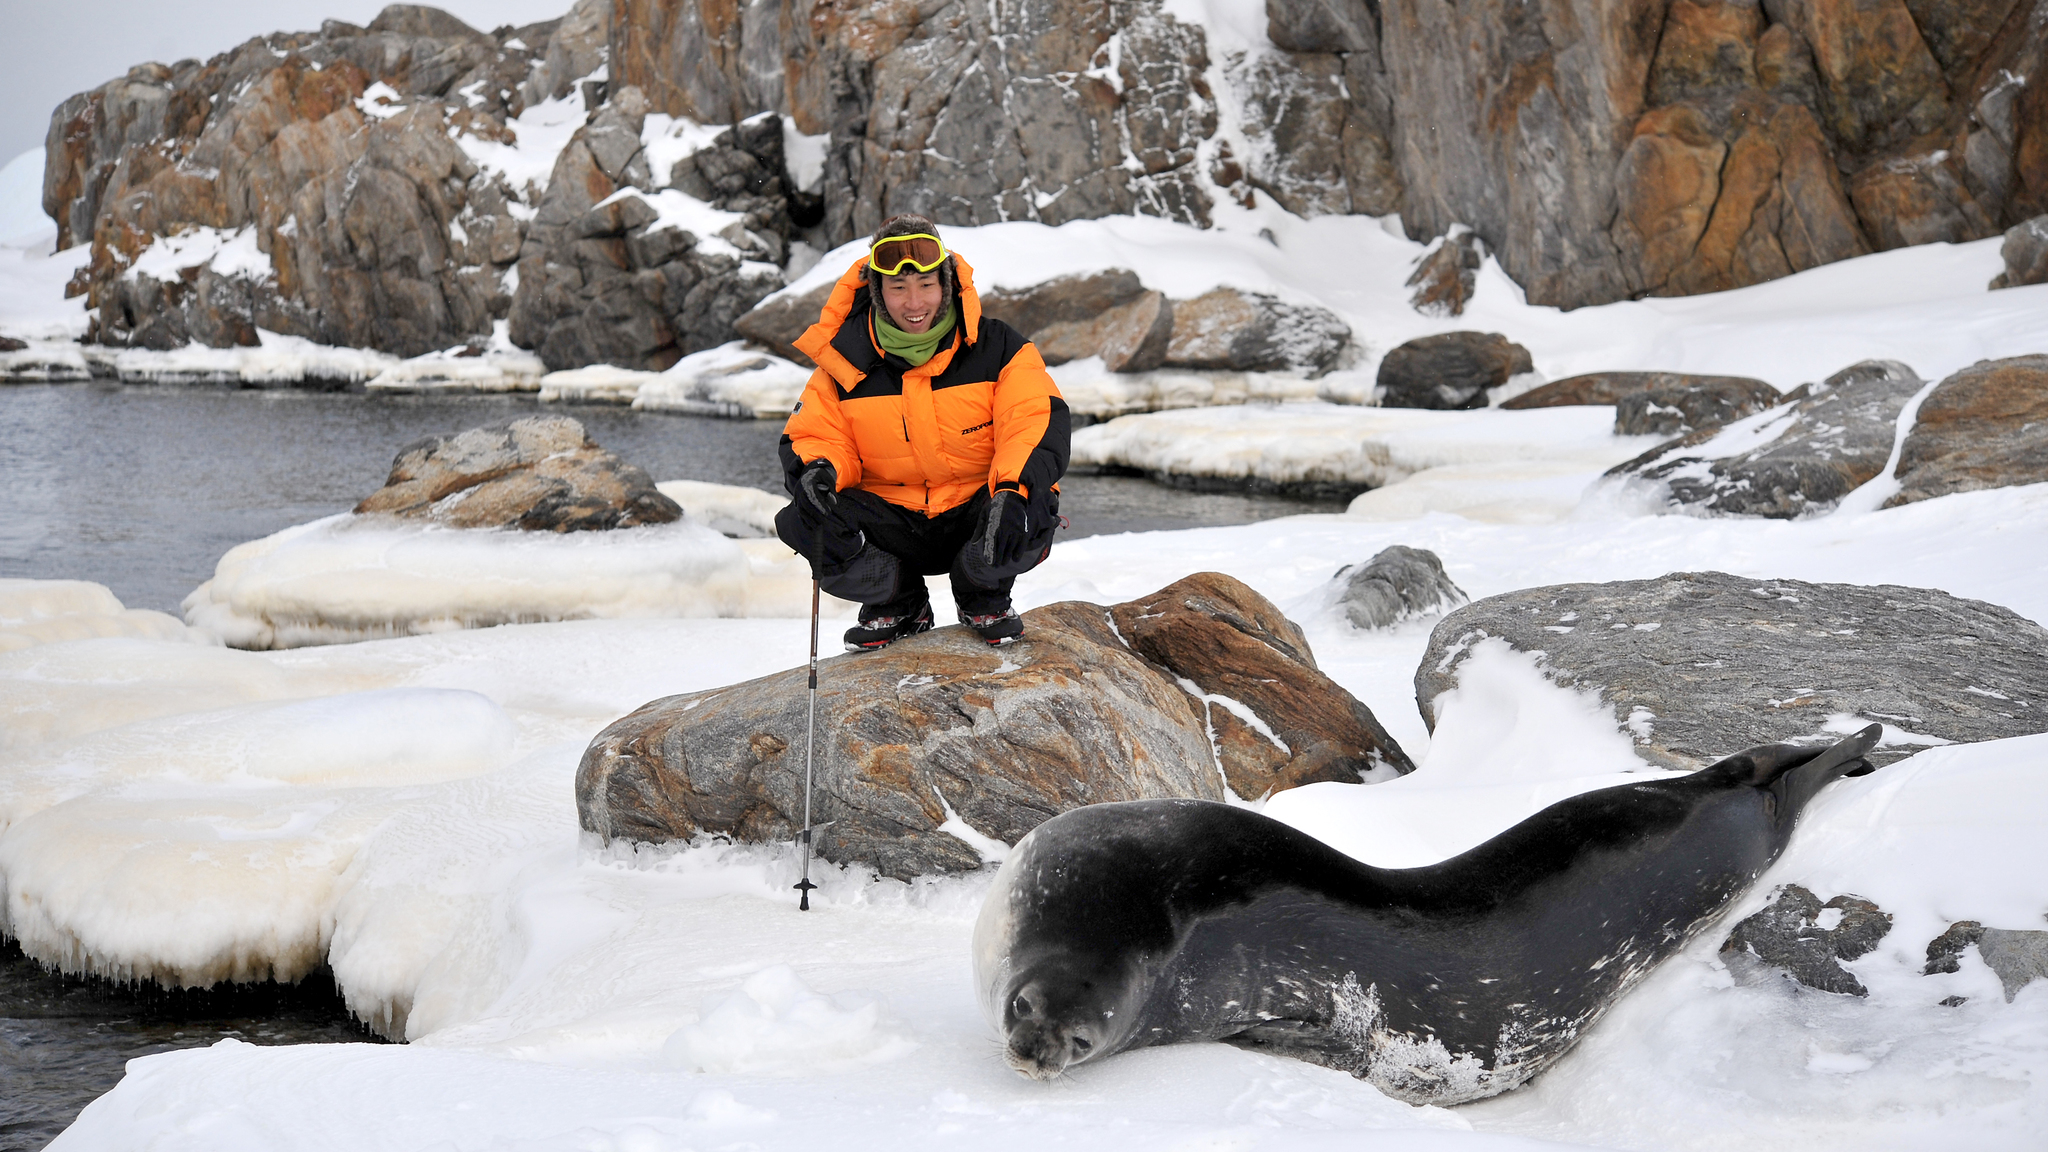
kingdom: Animalia
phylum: Chordata
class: Mammalia
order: Carnivora
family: Phocidae
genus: Leptonychotes
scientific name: Leptonychotes weddellii
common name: Weddell seal
